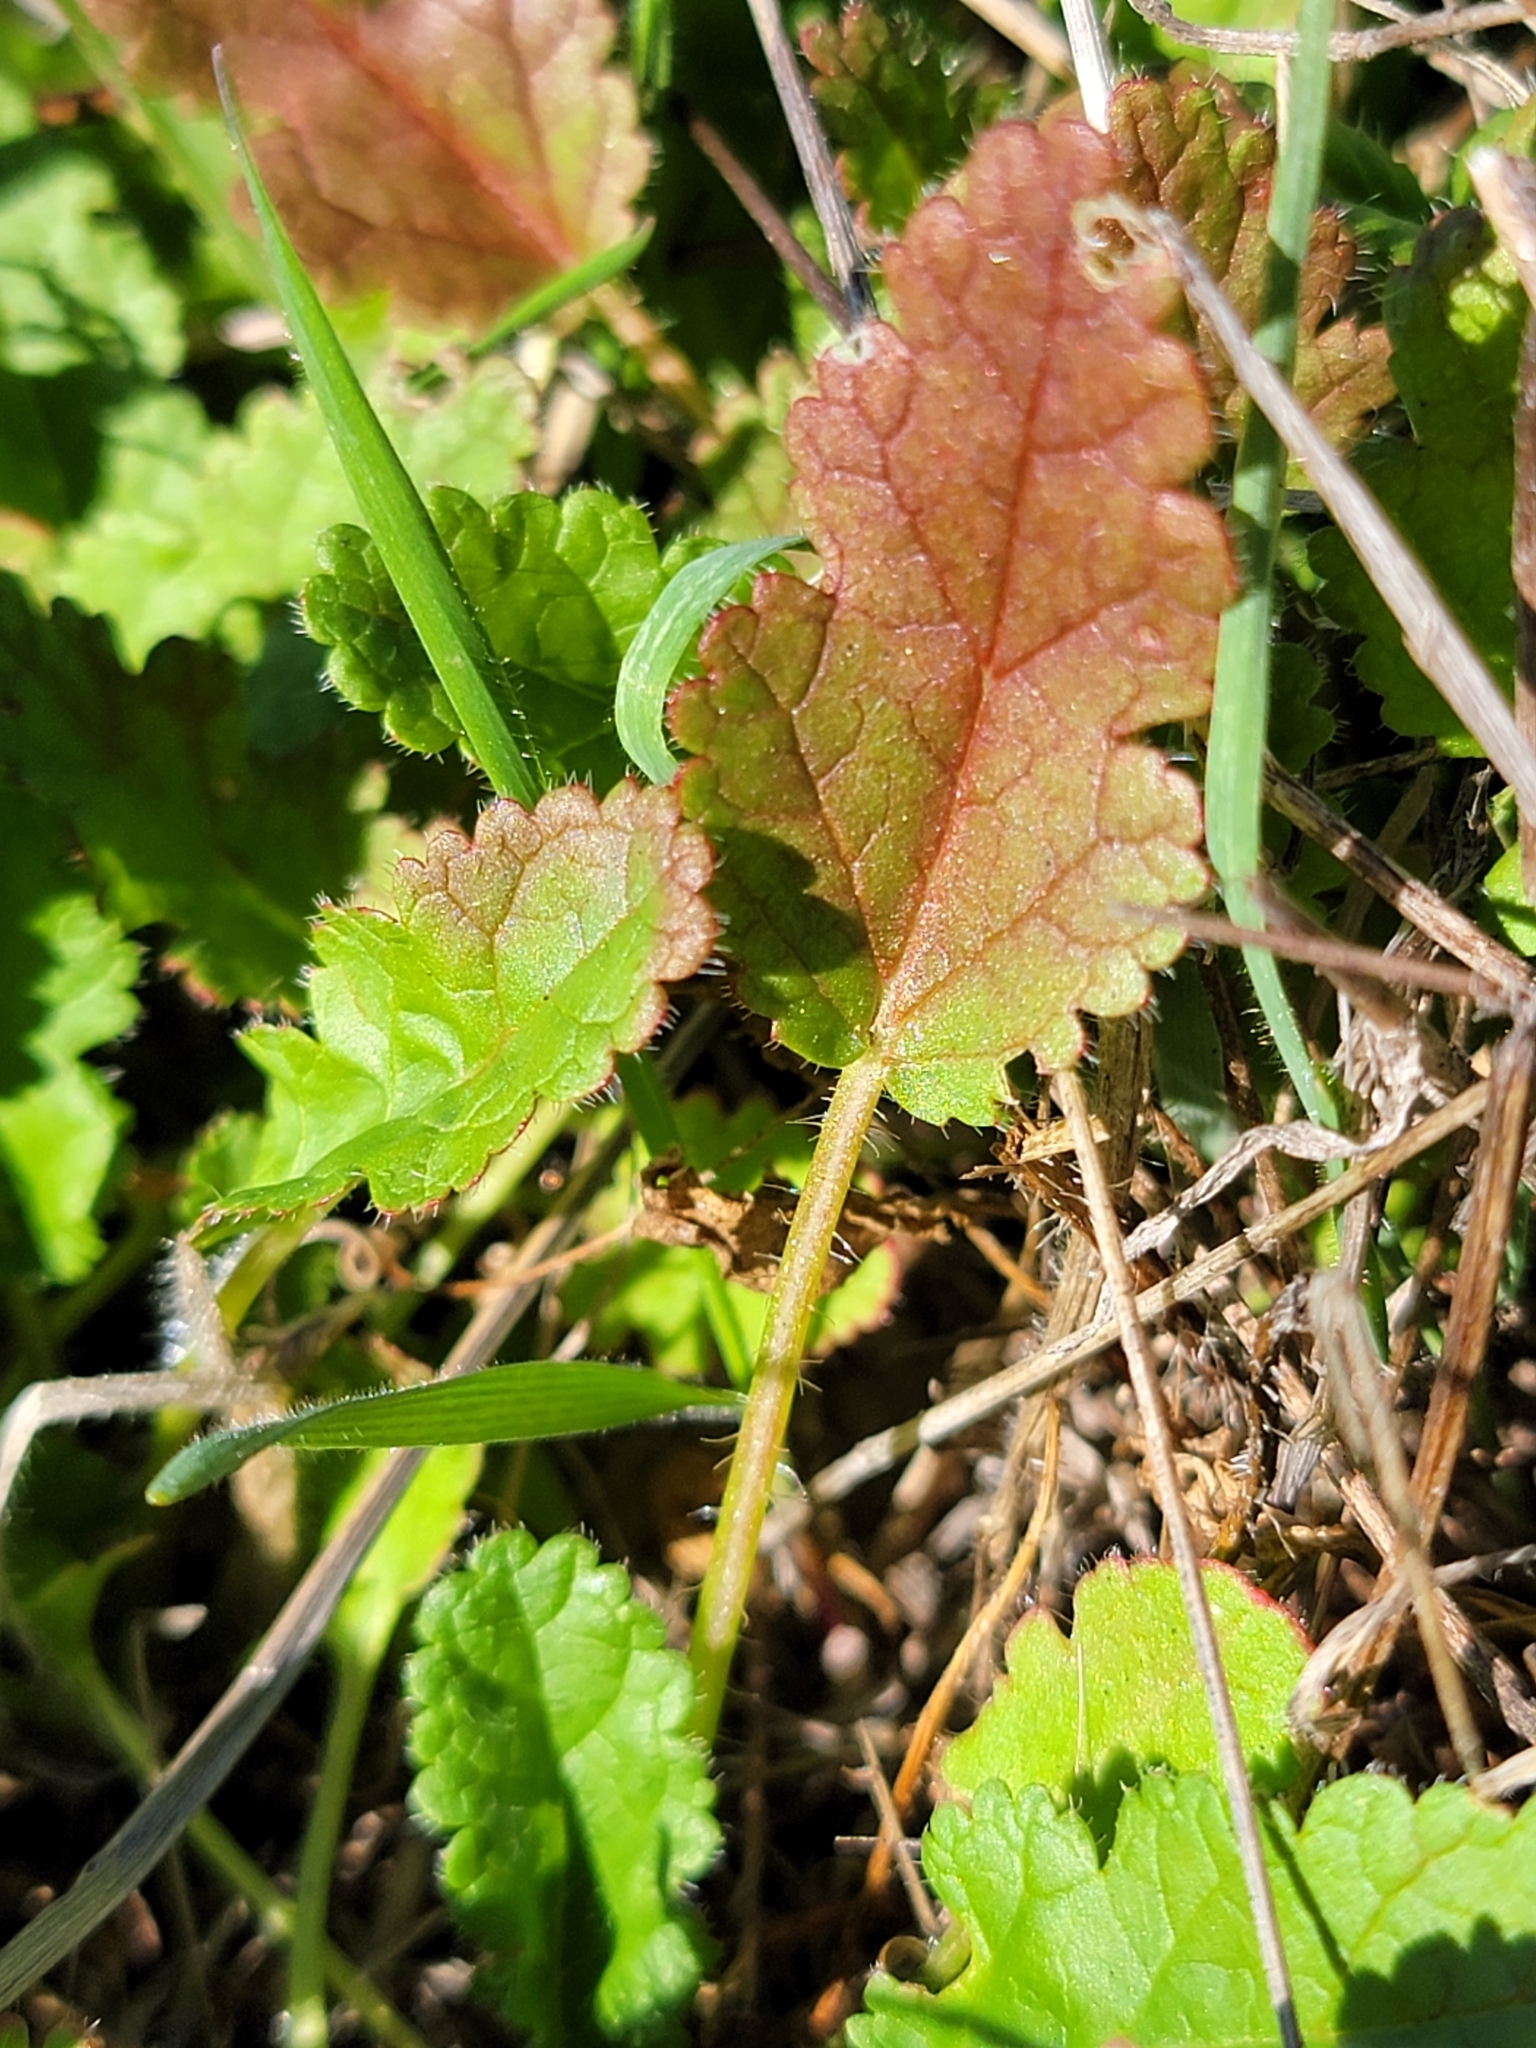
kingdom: Plantae
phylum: Tracheophyta
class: Magnoliopsida
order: Geraniales
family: Geraniaceae
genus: Erodium
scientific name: Erodium
